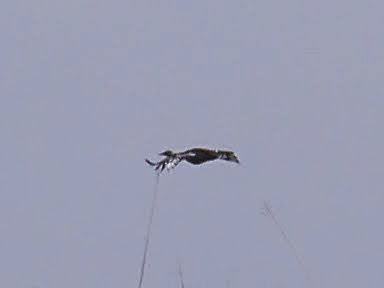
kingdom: Animalia
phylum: Chordata
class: Aves
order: Otidiformes
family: Otididae
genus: Neotis
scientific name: Neotis denhami
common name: Denham's bustard
